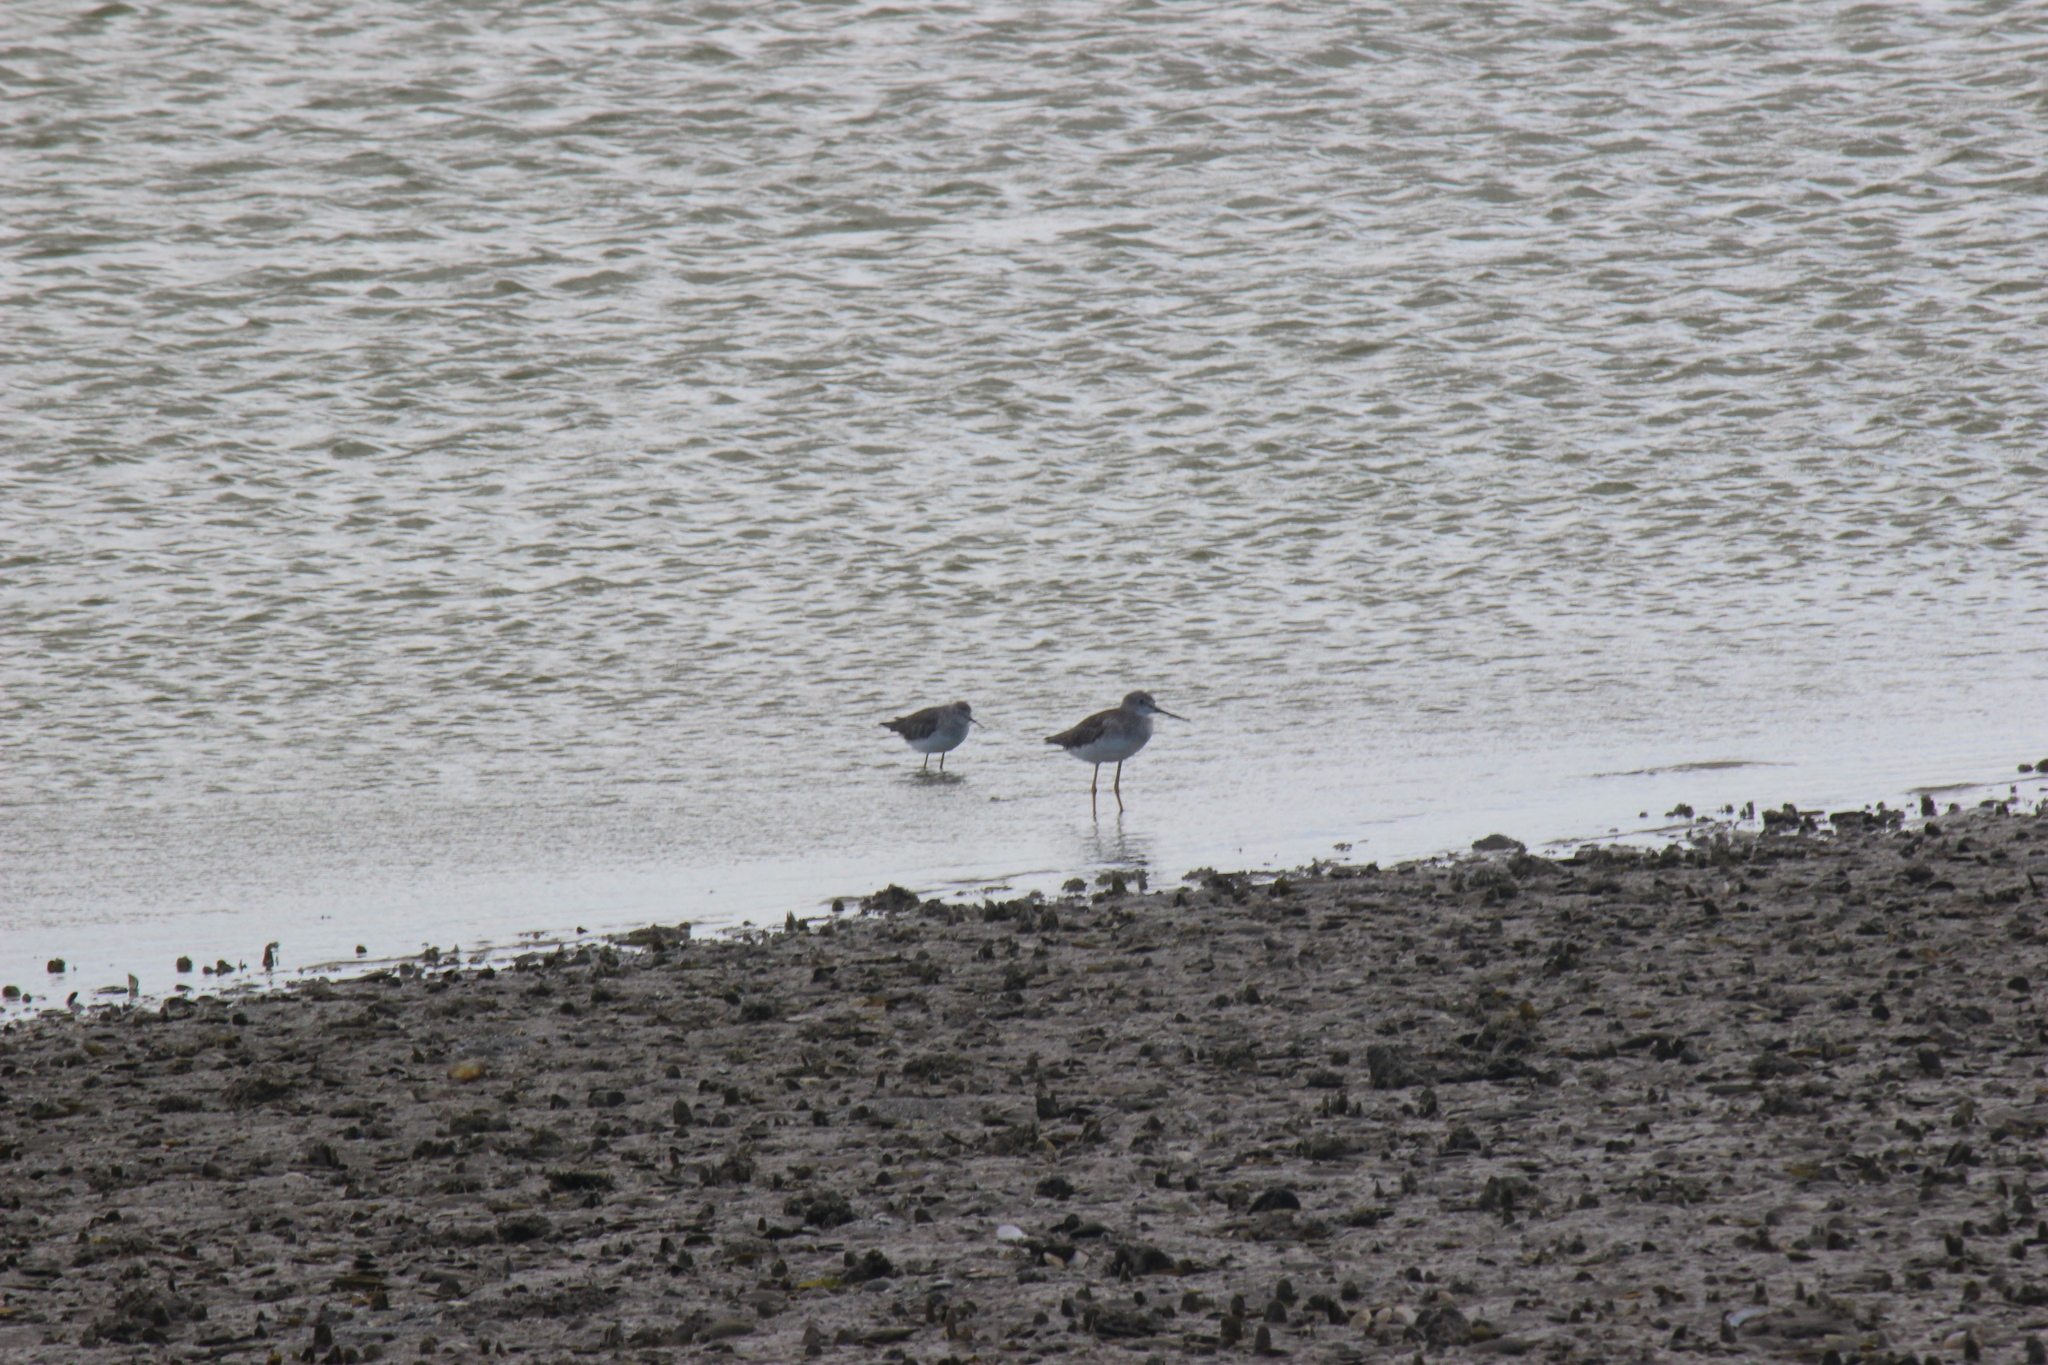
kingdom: Animalia
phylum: Chordata
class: Aves
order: Charadriiformes
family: Scolopacidae
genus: Tringa
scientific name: Tringa melanoleuca
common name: Greater yellowlegs
